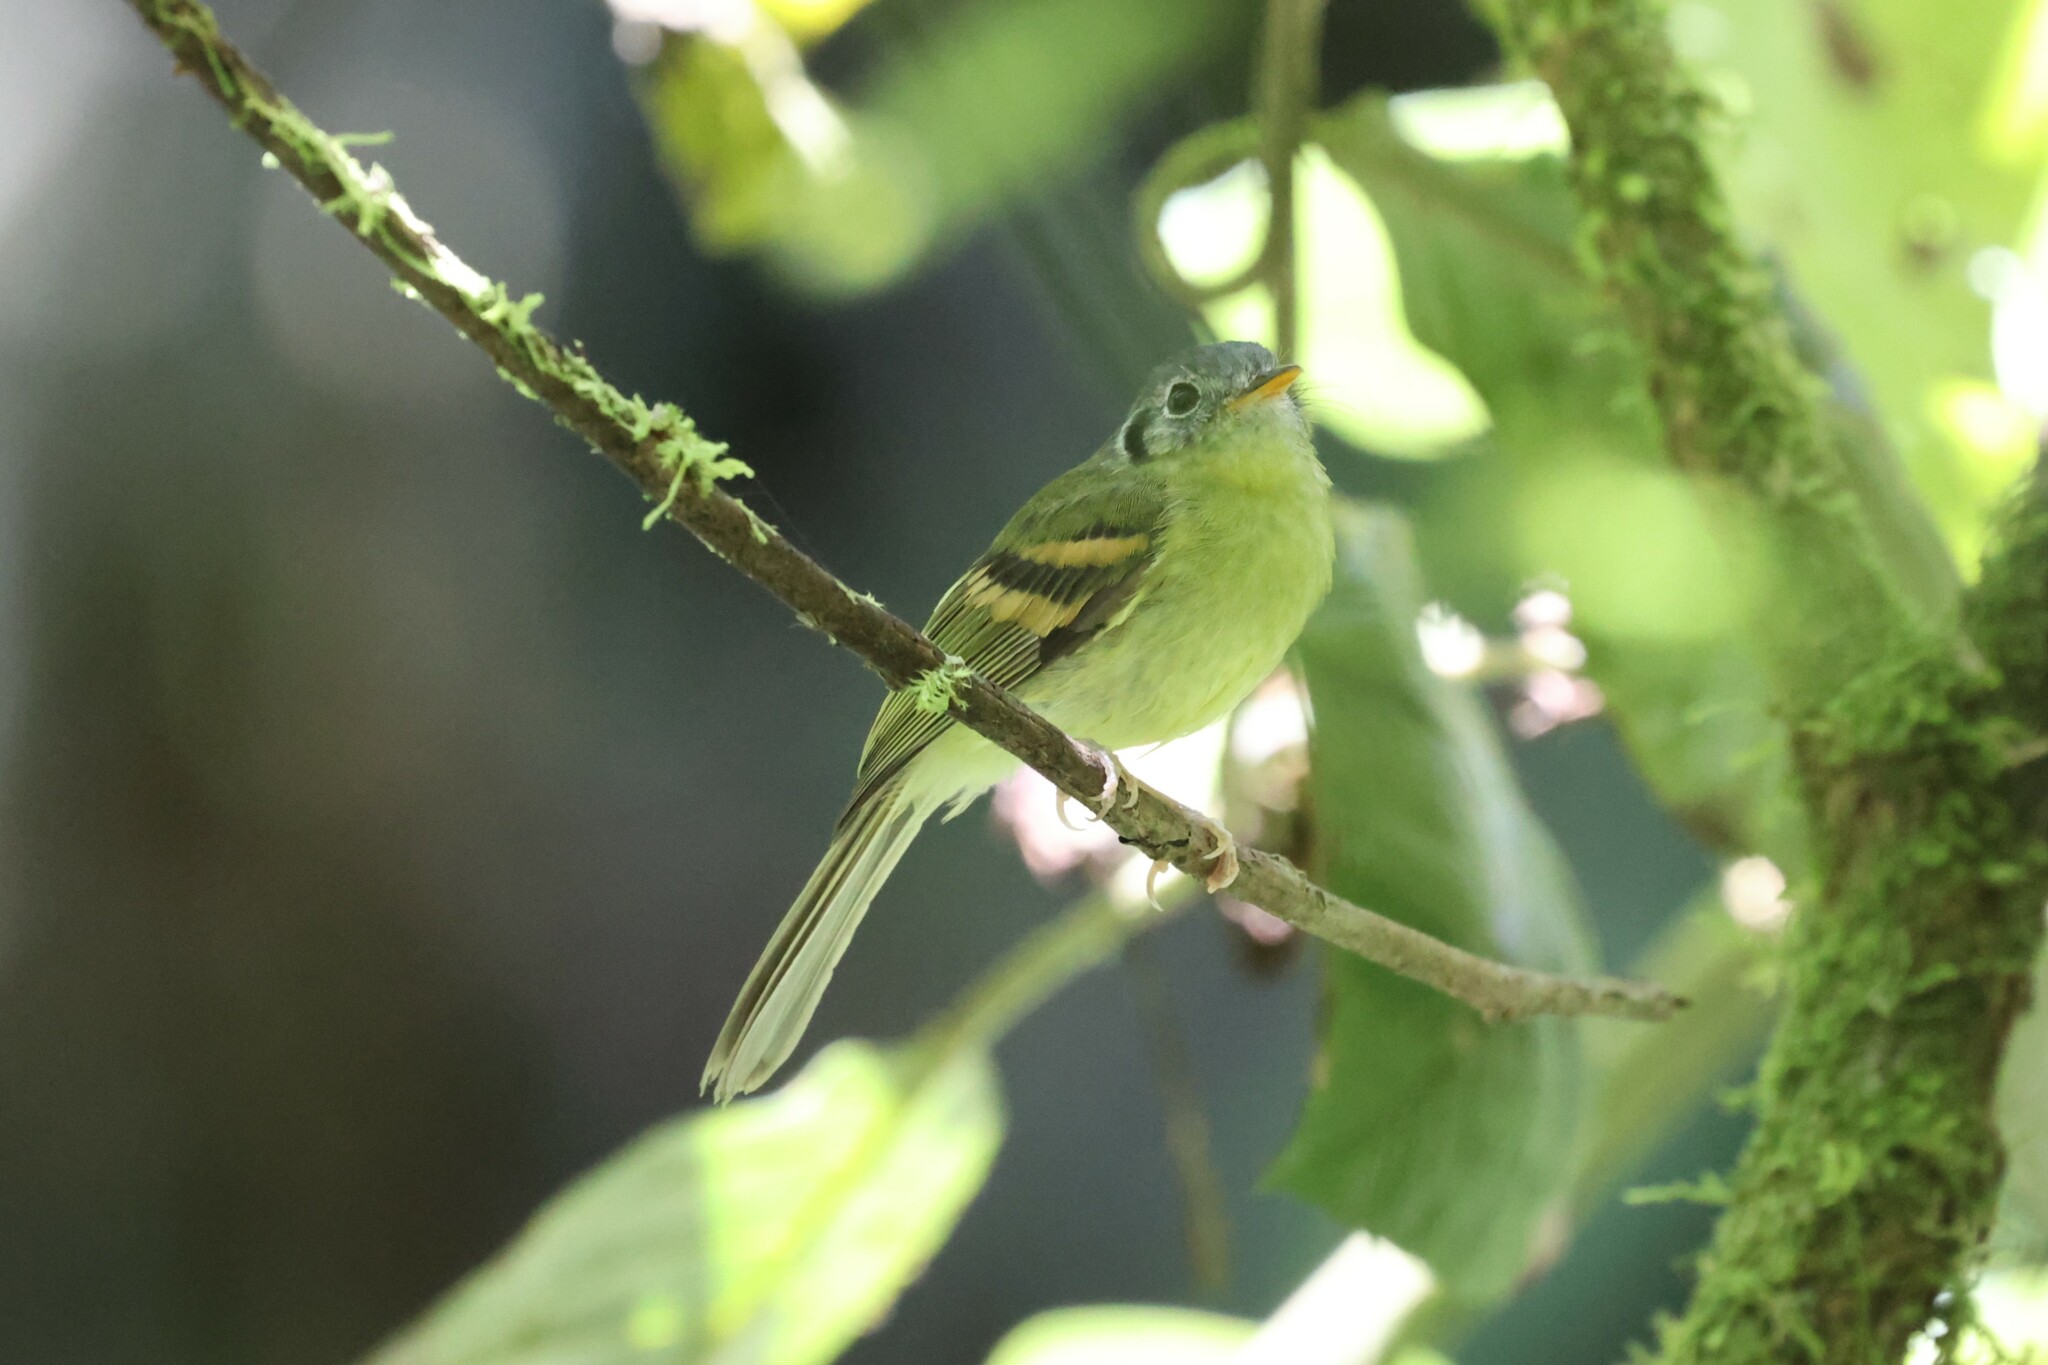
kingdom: Animalia
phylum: Chordata
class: Aves
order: Passeriformes
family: Tyrannidae
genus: Phylloscartes
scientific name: Phylloscartes poecilotis
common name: Variegated bristle-tyrant
